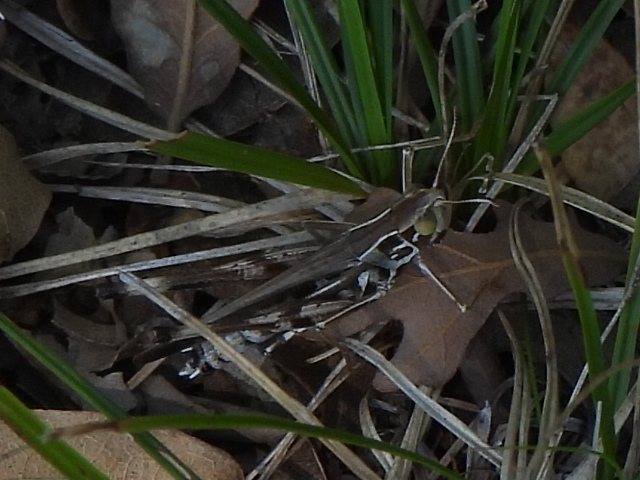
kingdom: Animalia
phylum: Arthropoda
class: Insecta
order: Orthoptera
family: Acrididae
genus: Syrbula
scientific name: Syrbula admirabilis
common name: Handsome grasshopper
